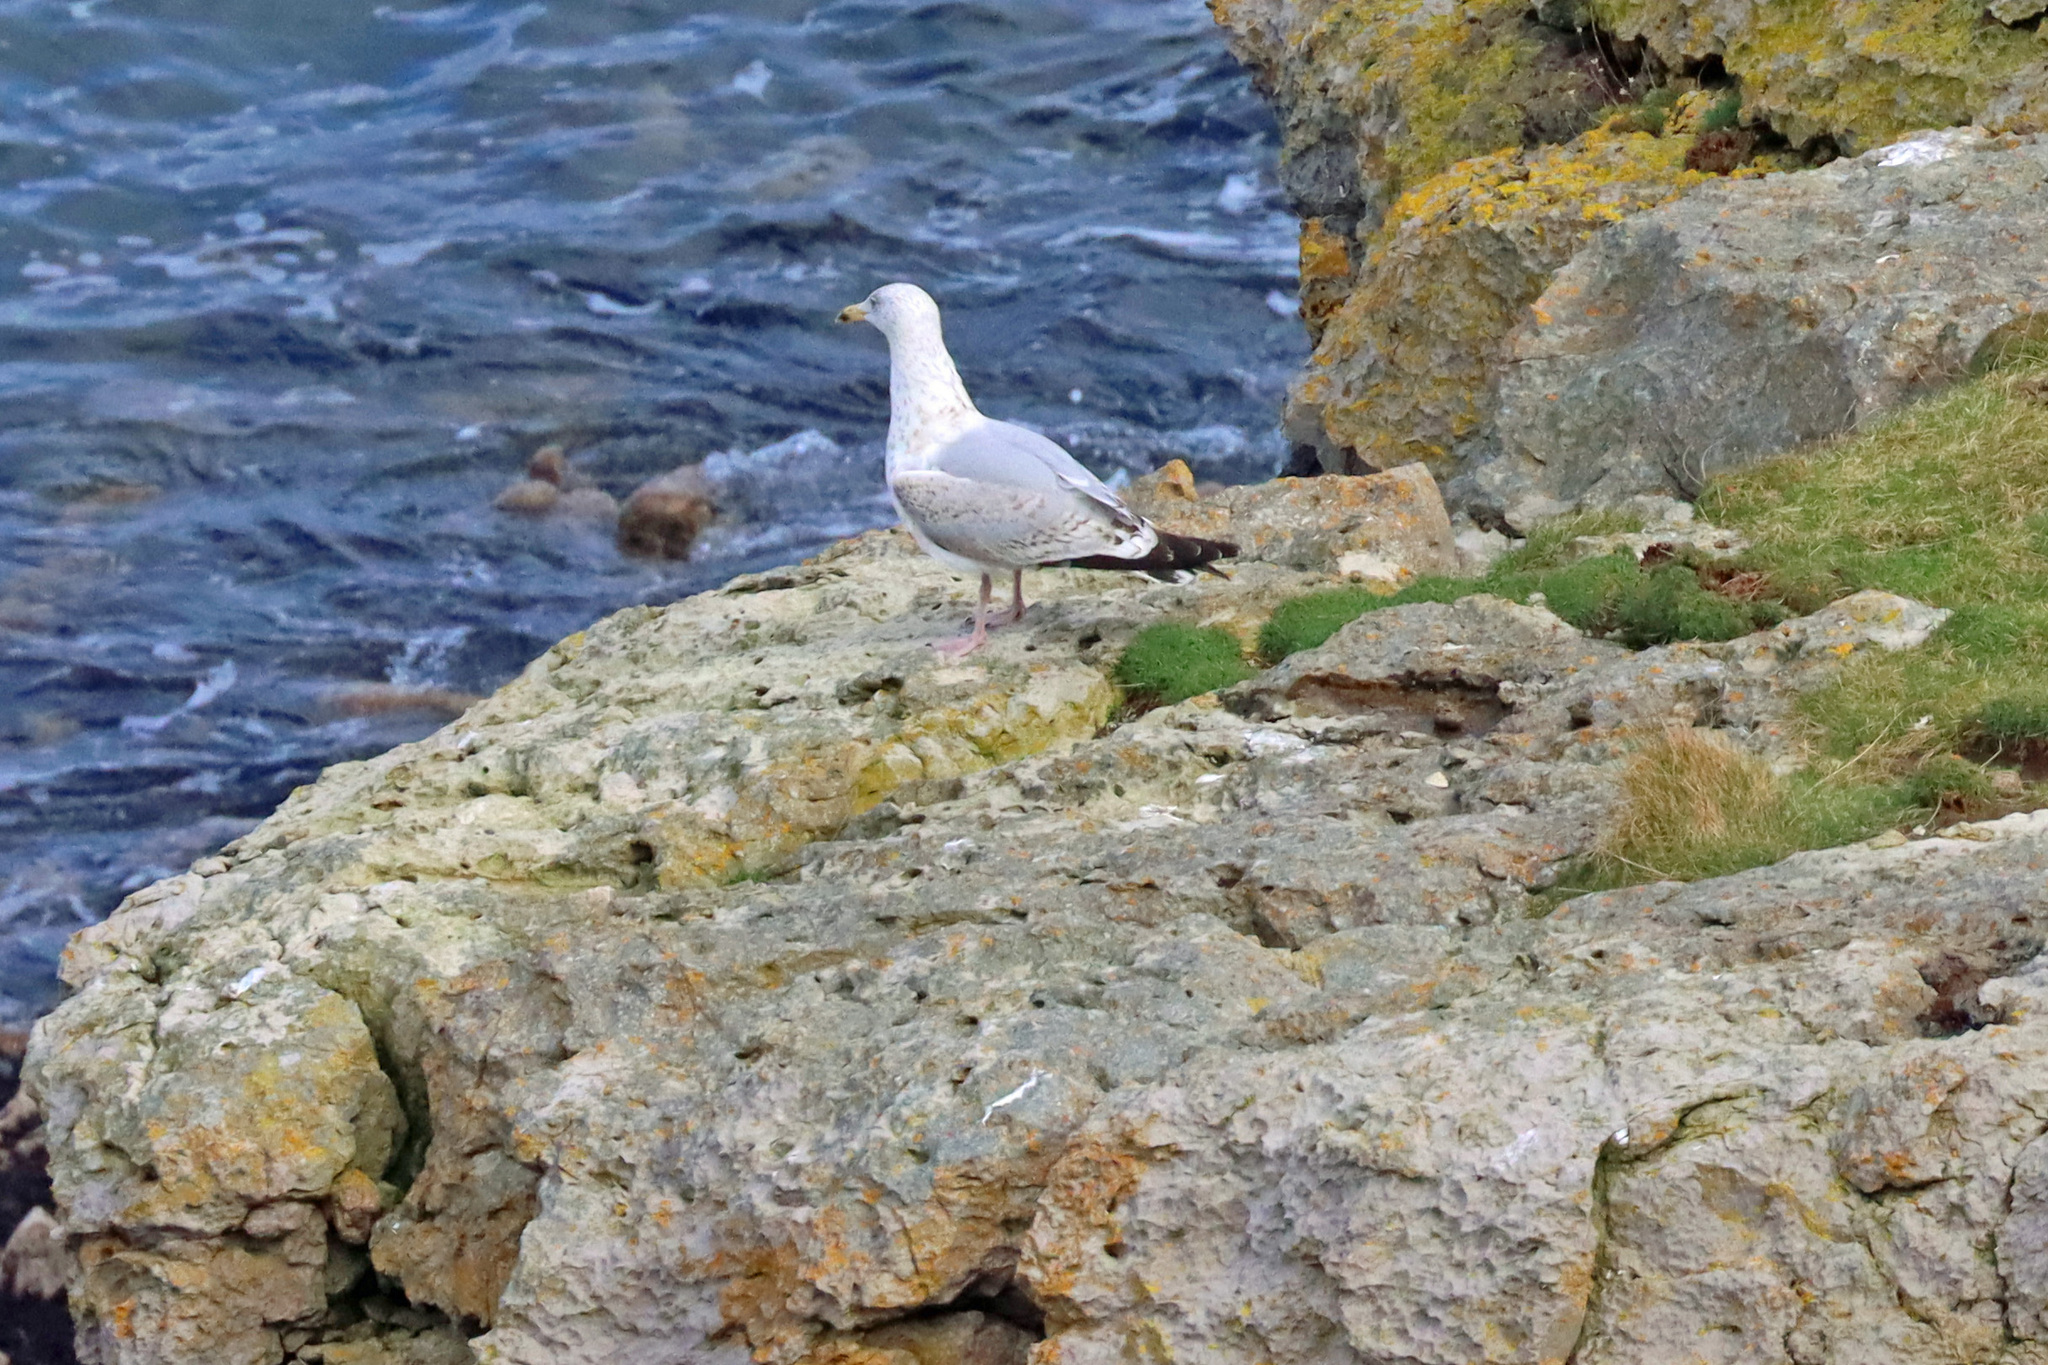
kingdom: Animalia
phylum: Chordata
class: Aves
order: Charadriiformes
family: Laridae
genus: Larus
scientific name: Larus argentatus
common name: Herring gull
